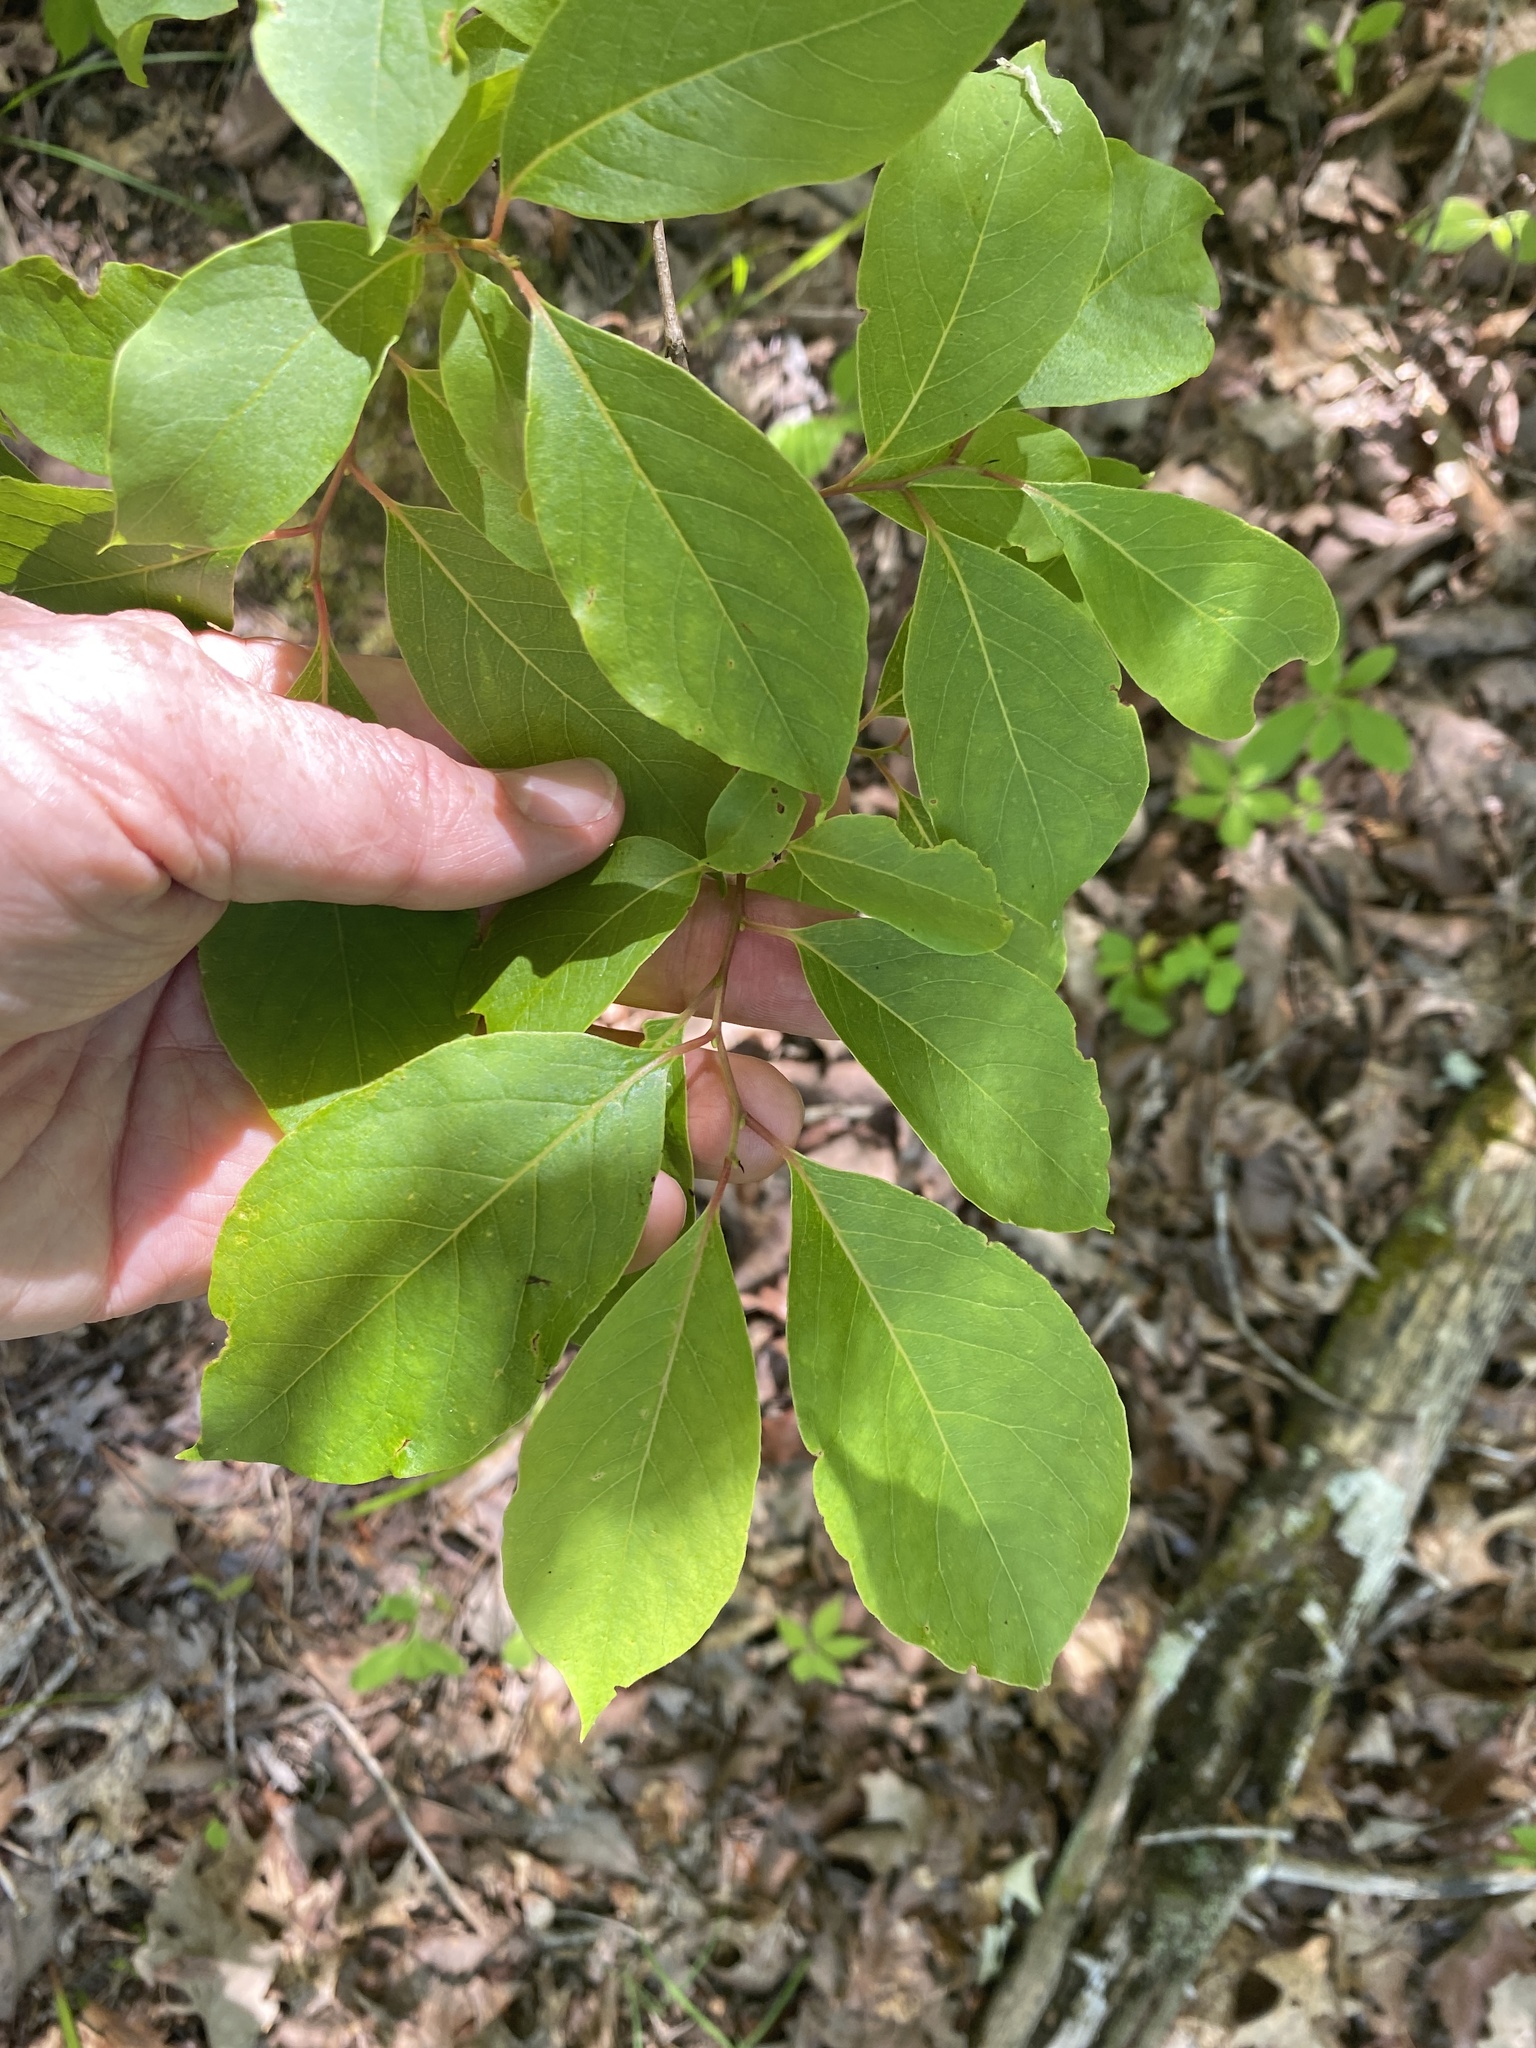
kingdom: Plantae
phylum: Tracheophyta
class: Magnoliopsida
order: Ericales
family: Ebenaceae
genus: Diospyros
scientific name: Diospyros virginiana
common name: Persimmon
